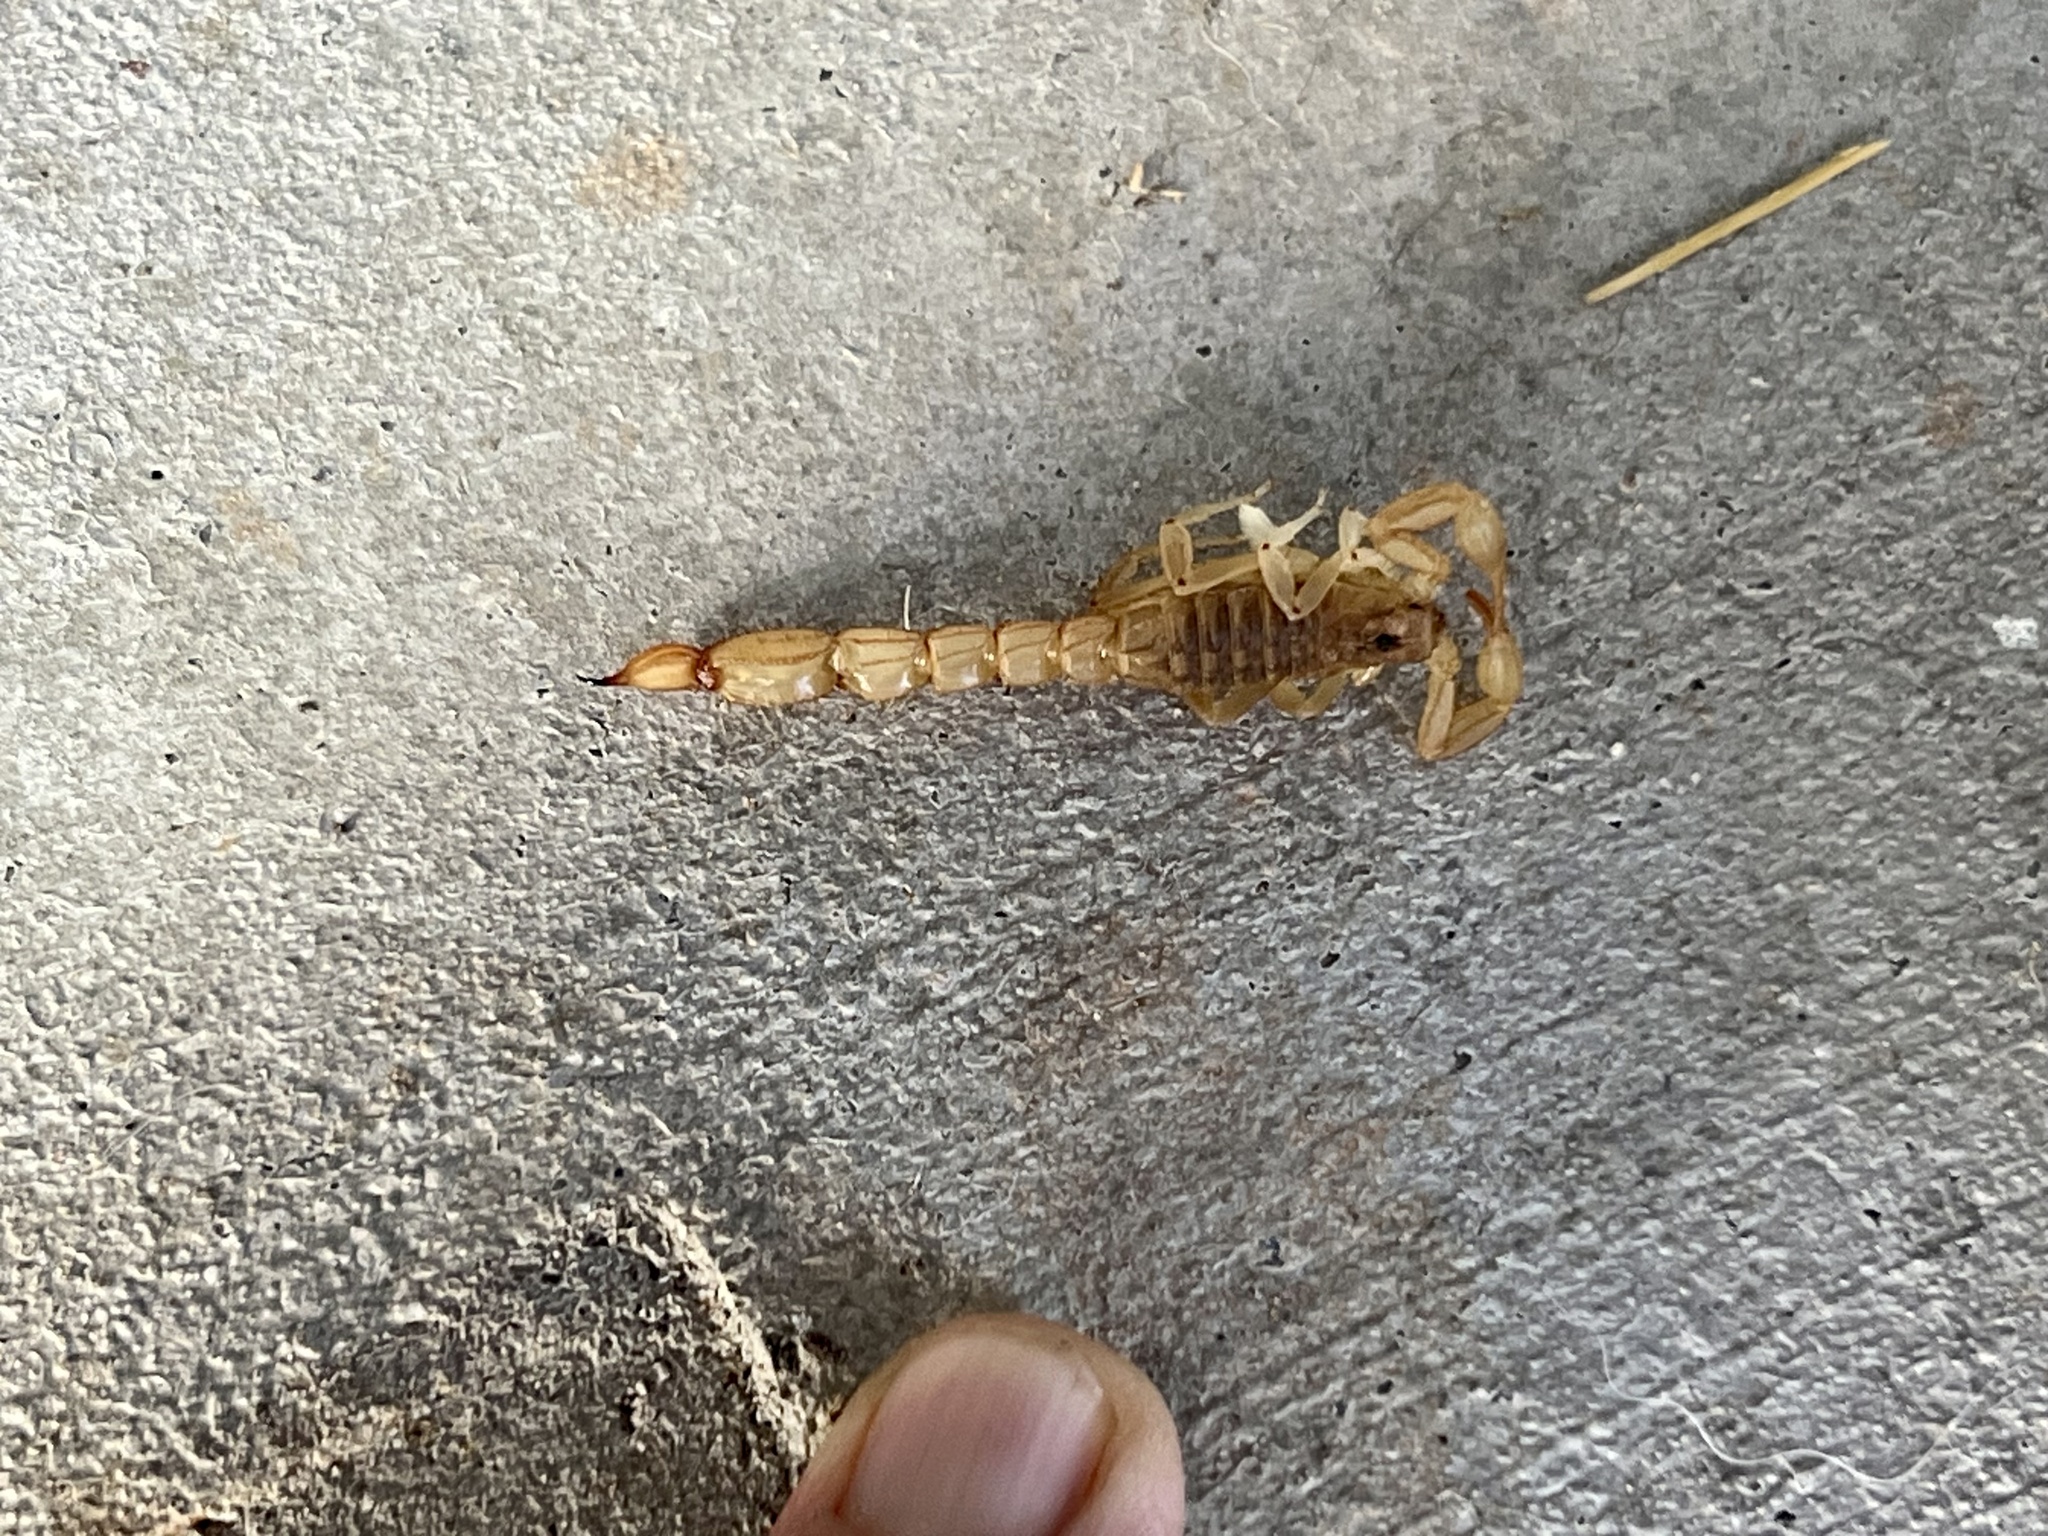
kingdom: Animalia
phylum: Arthropoda
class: Arachnida
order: Scorpiones
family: Vaejovidae
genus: Paravaejovis
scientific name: Paravaejovis spinigerus
